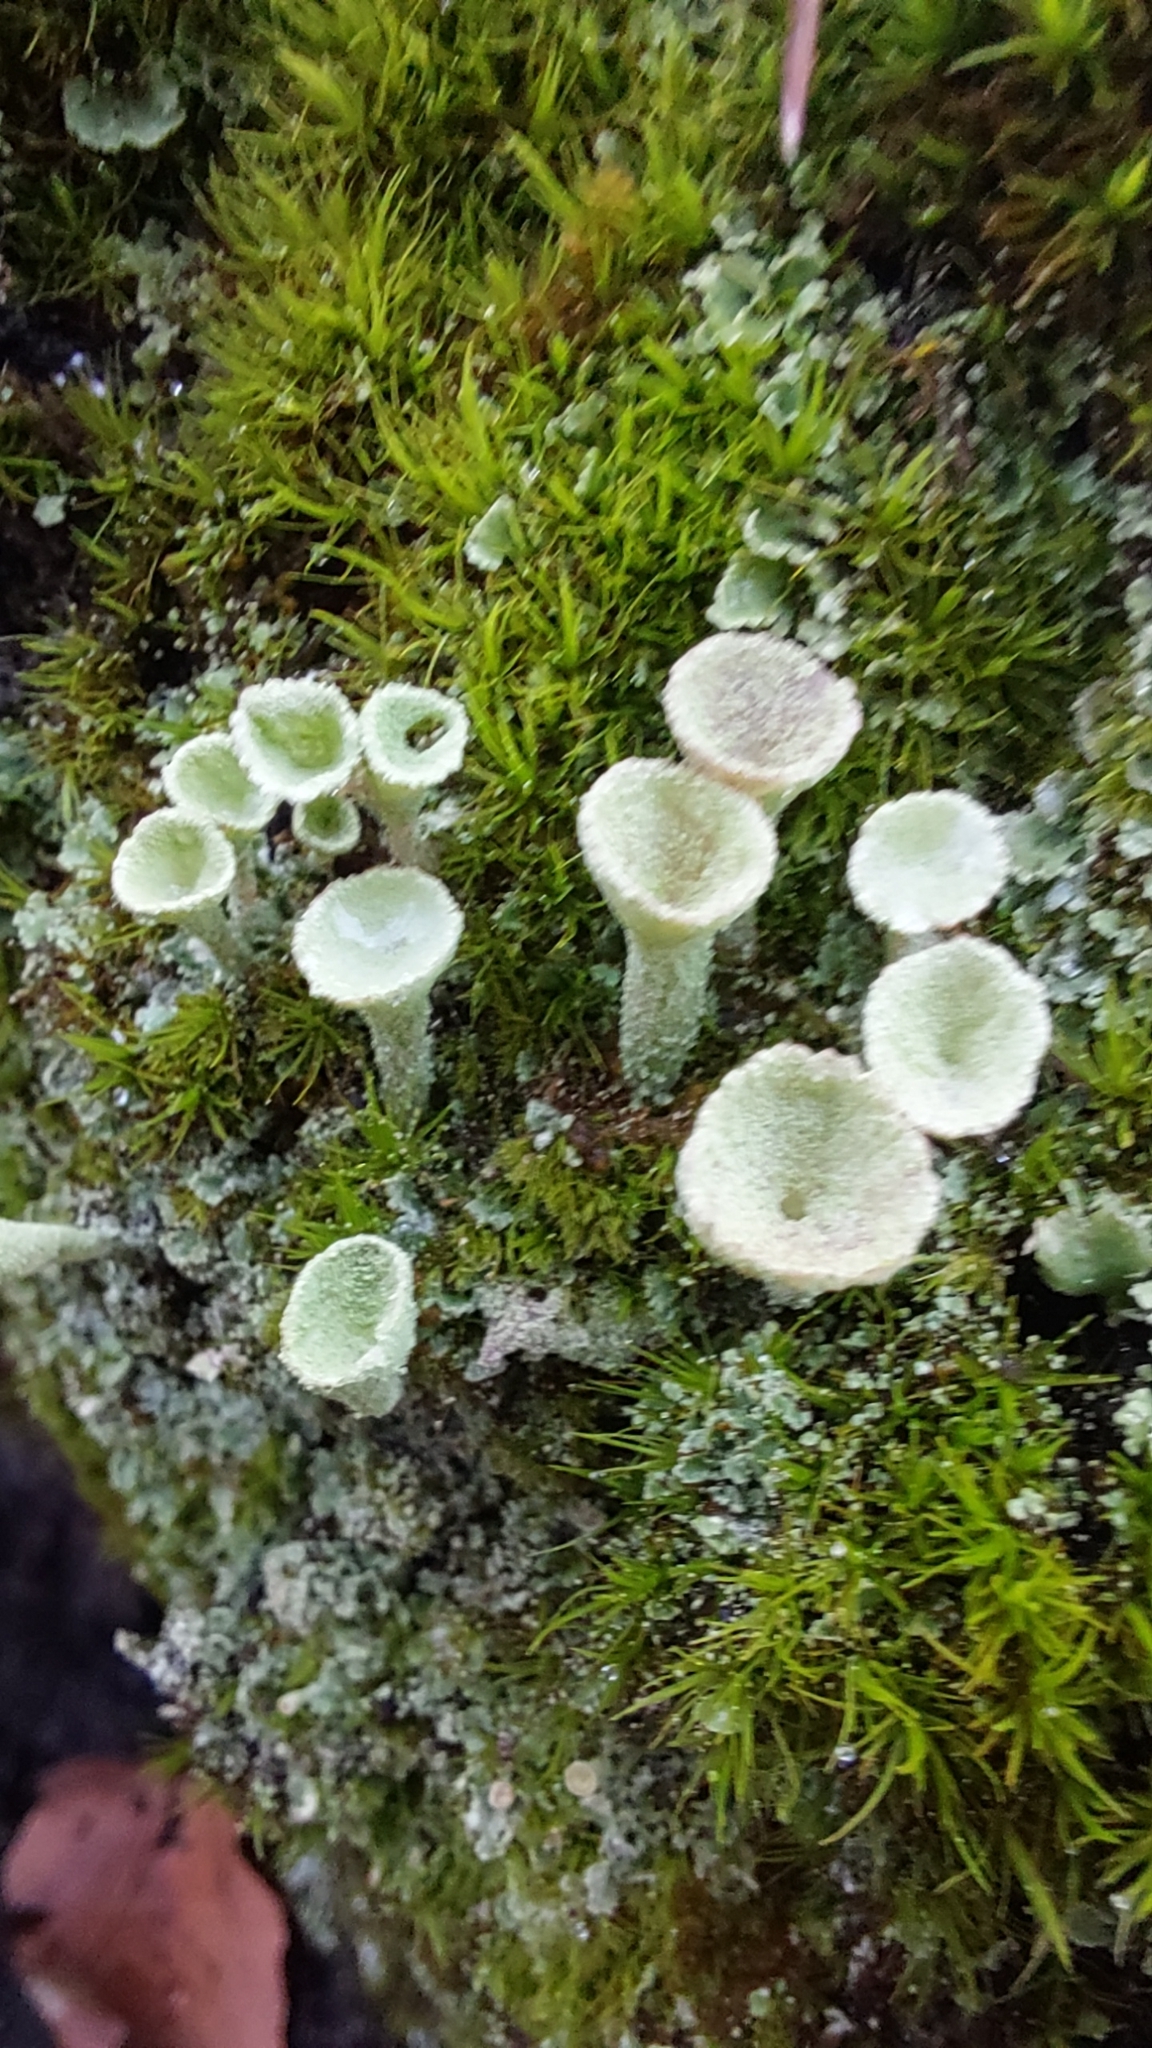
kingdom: Fungi
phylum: Ascomycota
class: Lecanoromycetes
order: Lecanorales
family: Cladoniaceae
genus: Cladonia
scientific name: Cladonia fimbriata
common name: Powdered trumpet lichen
